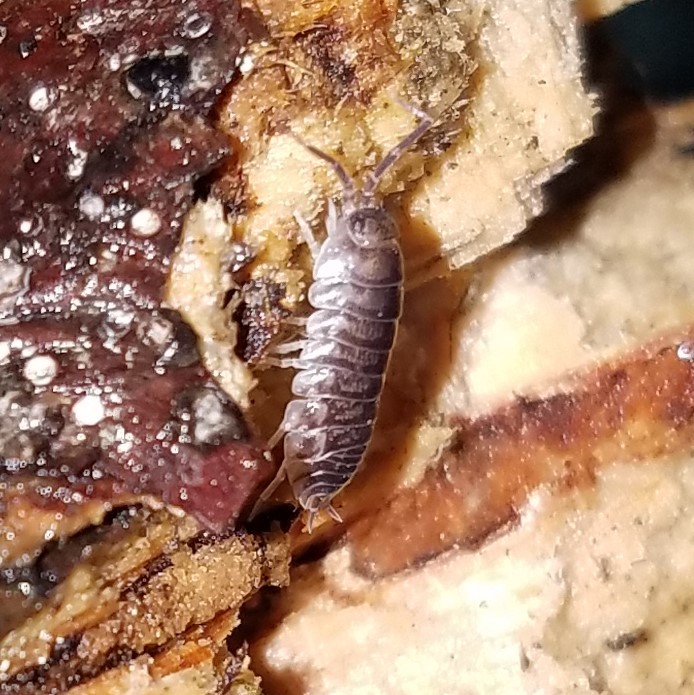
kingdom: Animalia
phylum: Arthropoda
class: Malacostraca
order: Isopoda
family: Cylisticidae
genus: Cylisticus
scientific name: Cylisticus convexus
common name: Curly woodlouse
